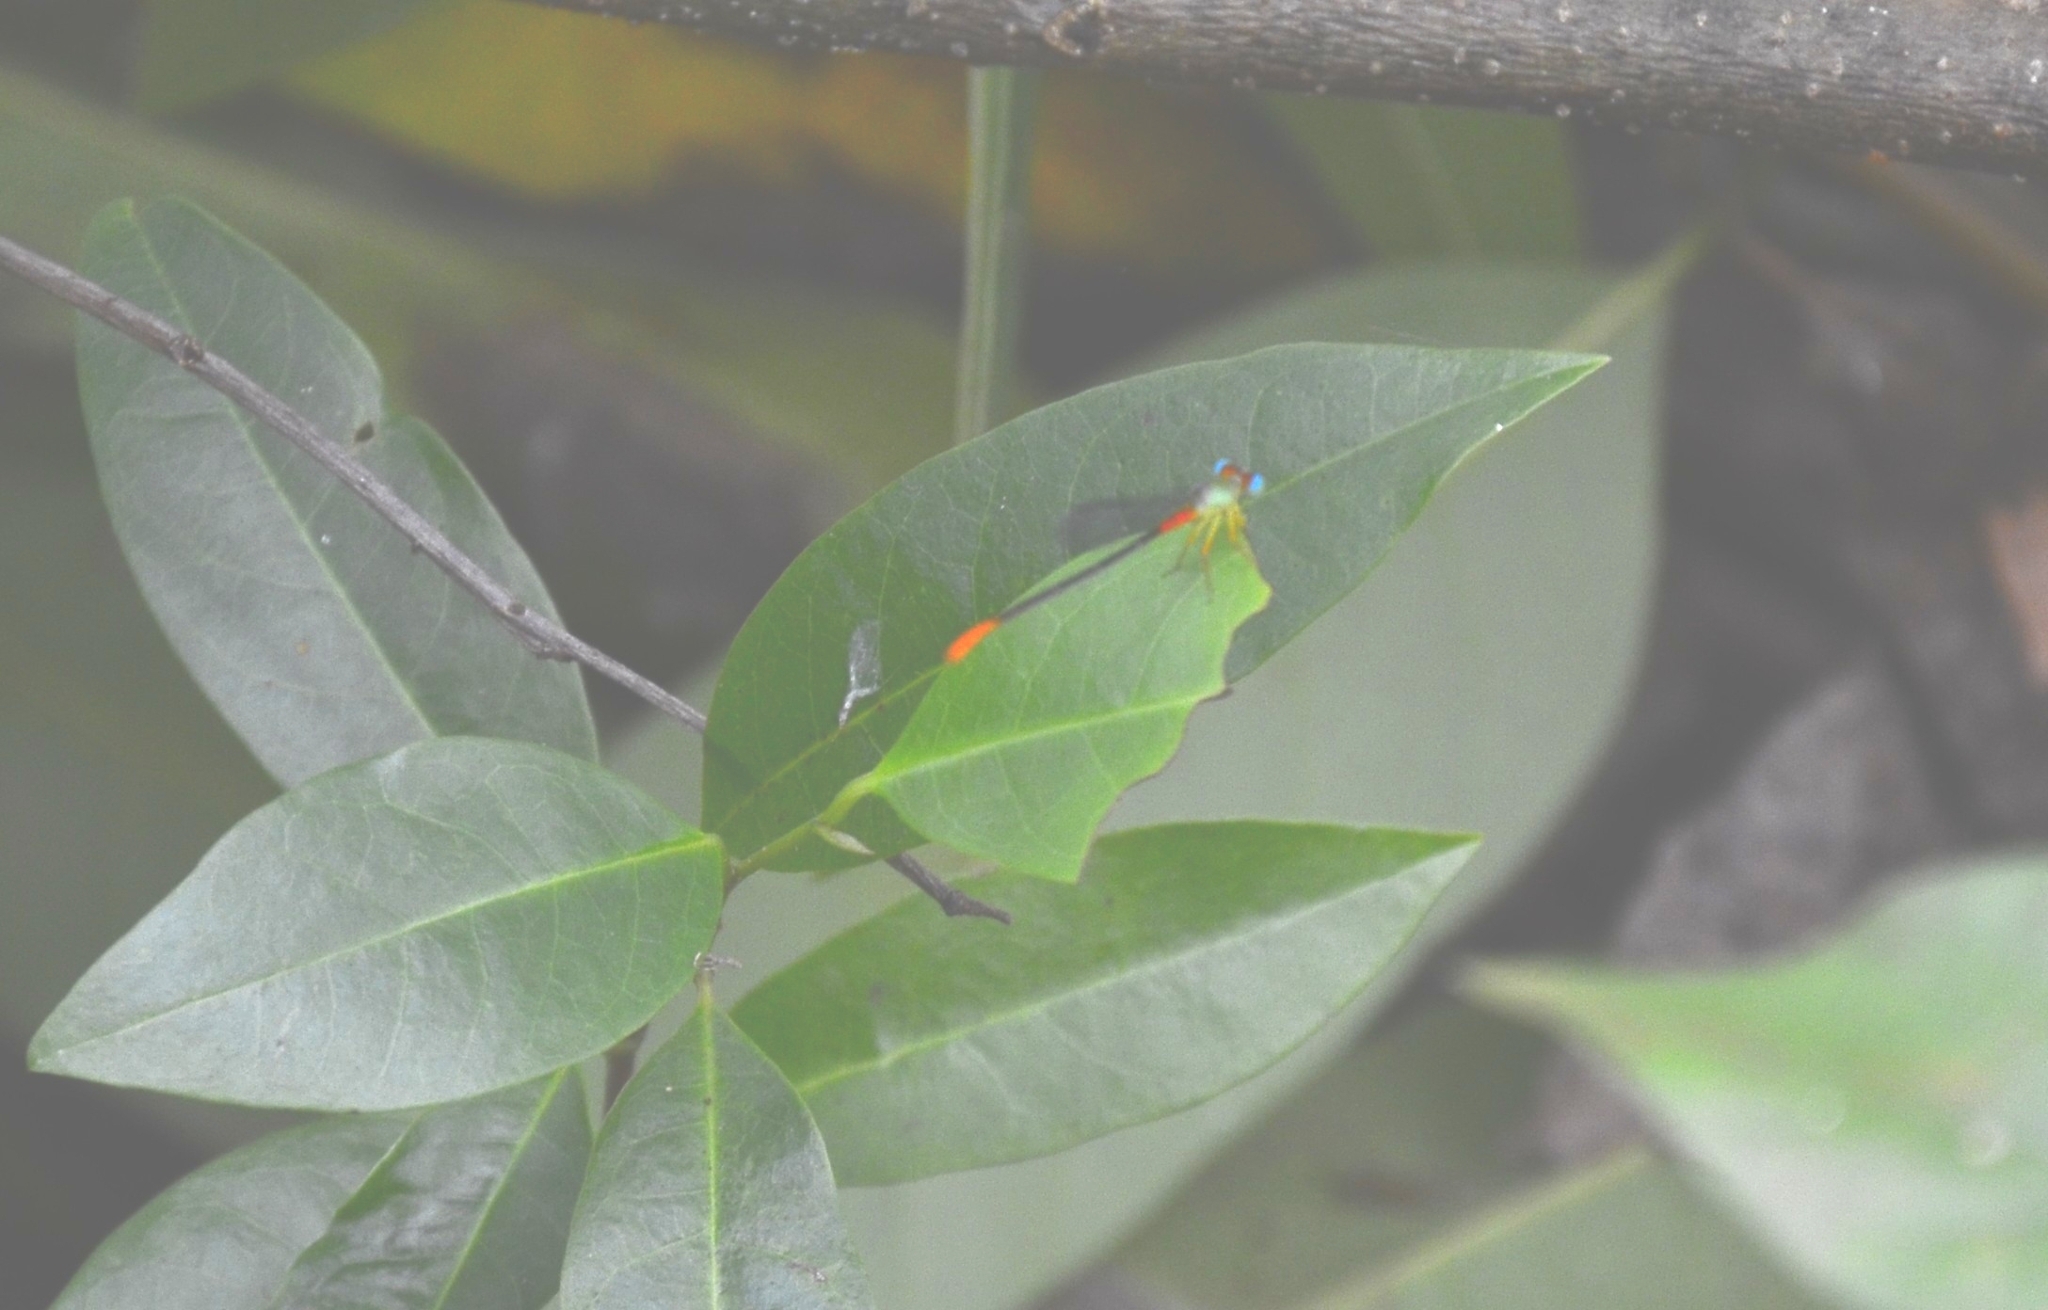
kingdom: Animalia
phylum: Arthropoda
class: Insecta
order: Odonata
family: Coenagrionidae
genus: Ceriagrion
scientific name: Ceriagrion cerinorubellum
